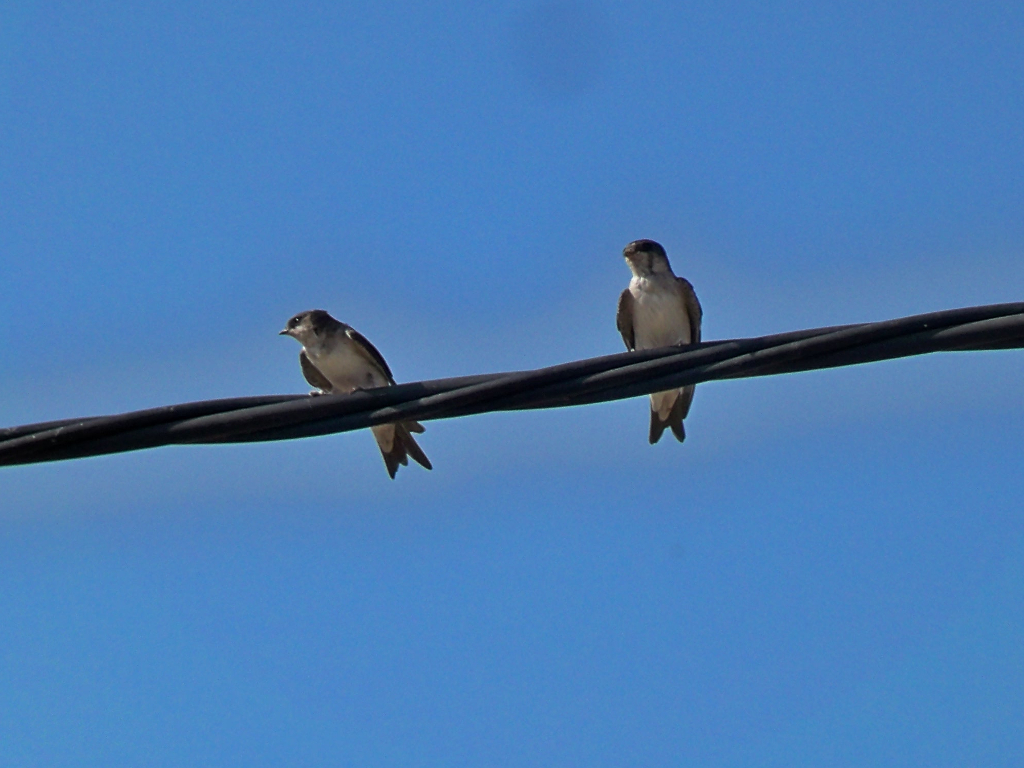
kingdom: Animalia
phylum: Chordata
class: Aves
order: Passeriformes
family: Hirundinidae
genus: Delichon
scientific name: Delichon urbicum
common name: Common house martin
